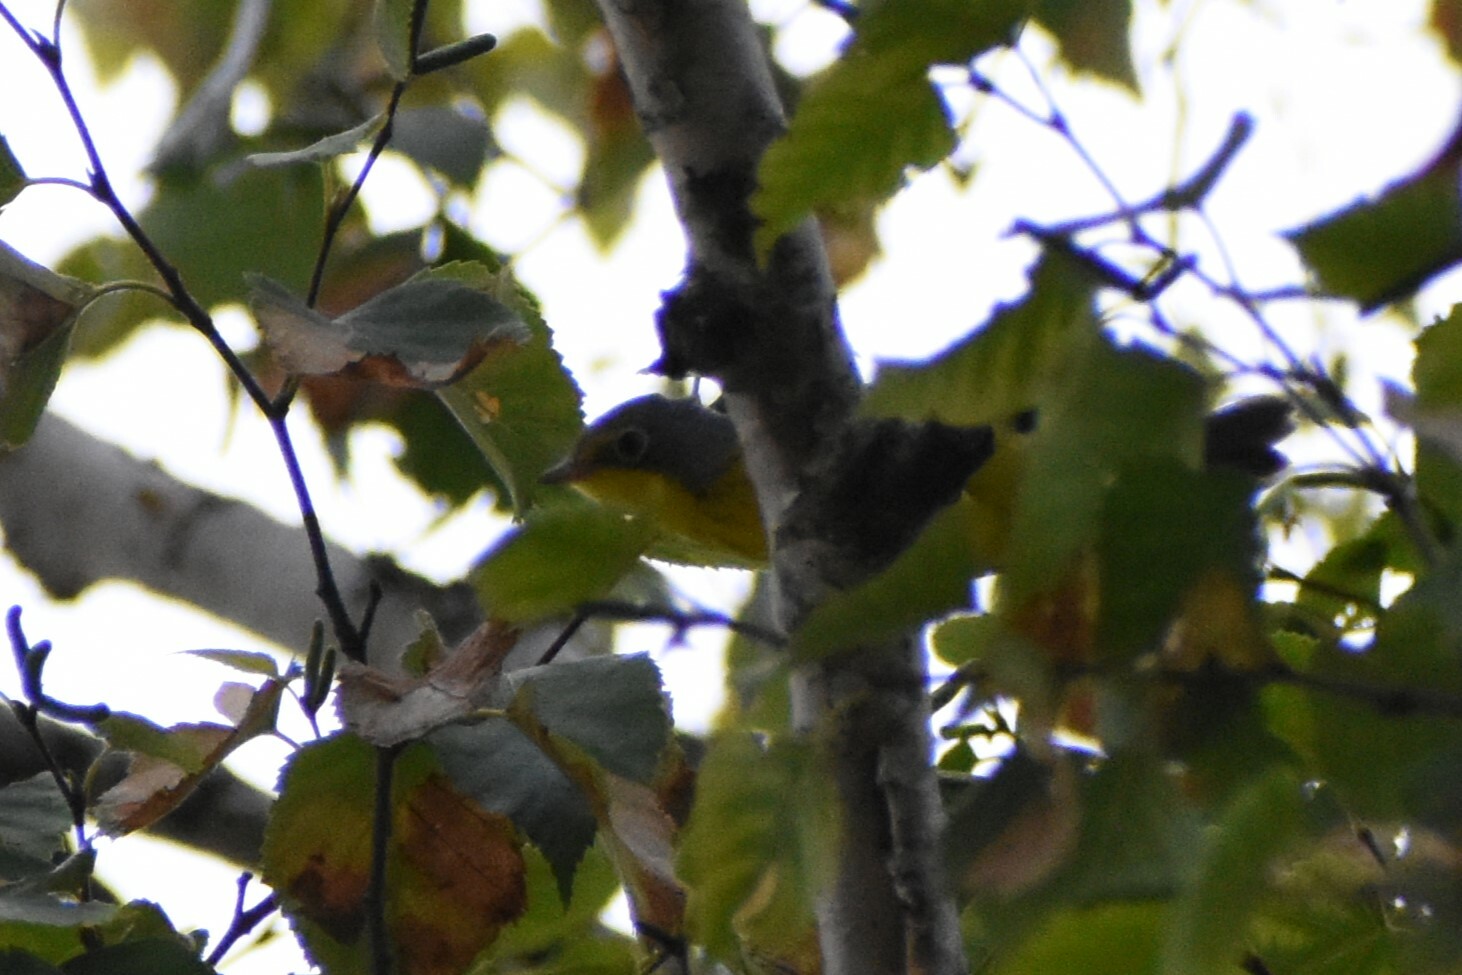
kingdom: Animalia
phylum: Chordata
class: Aves
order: Passeriformes
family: Parulidae
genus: Cardellina
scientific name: Cardellina canadensis
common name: Canada warbler
